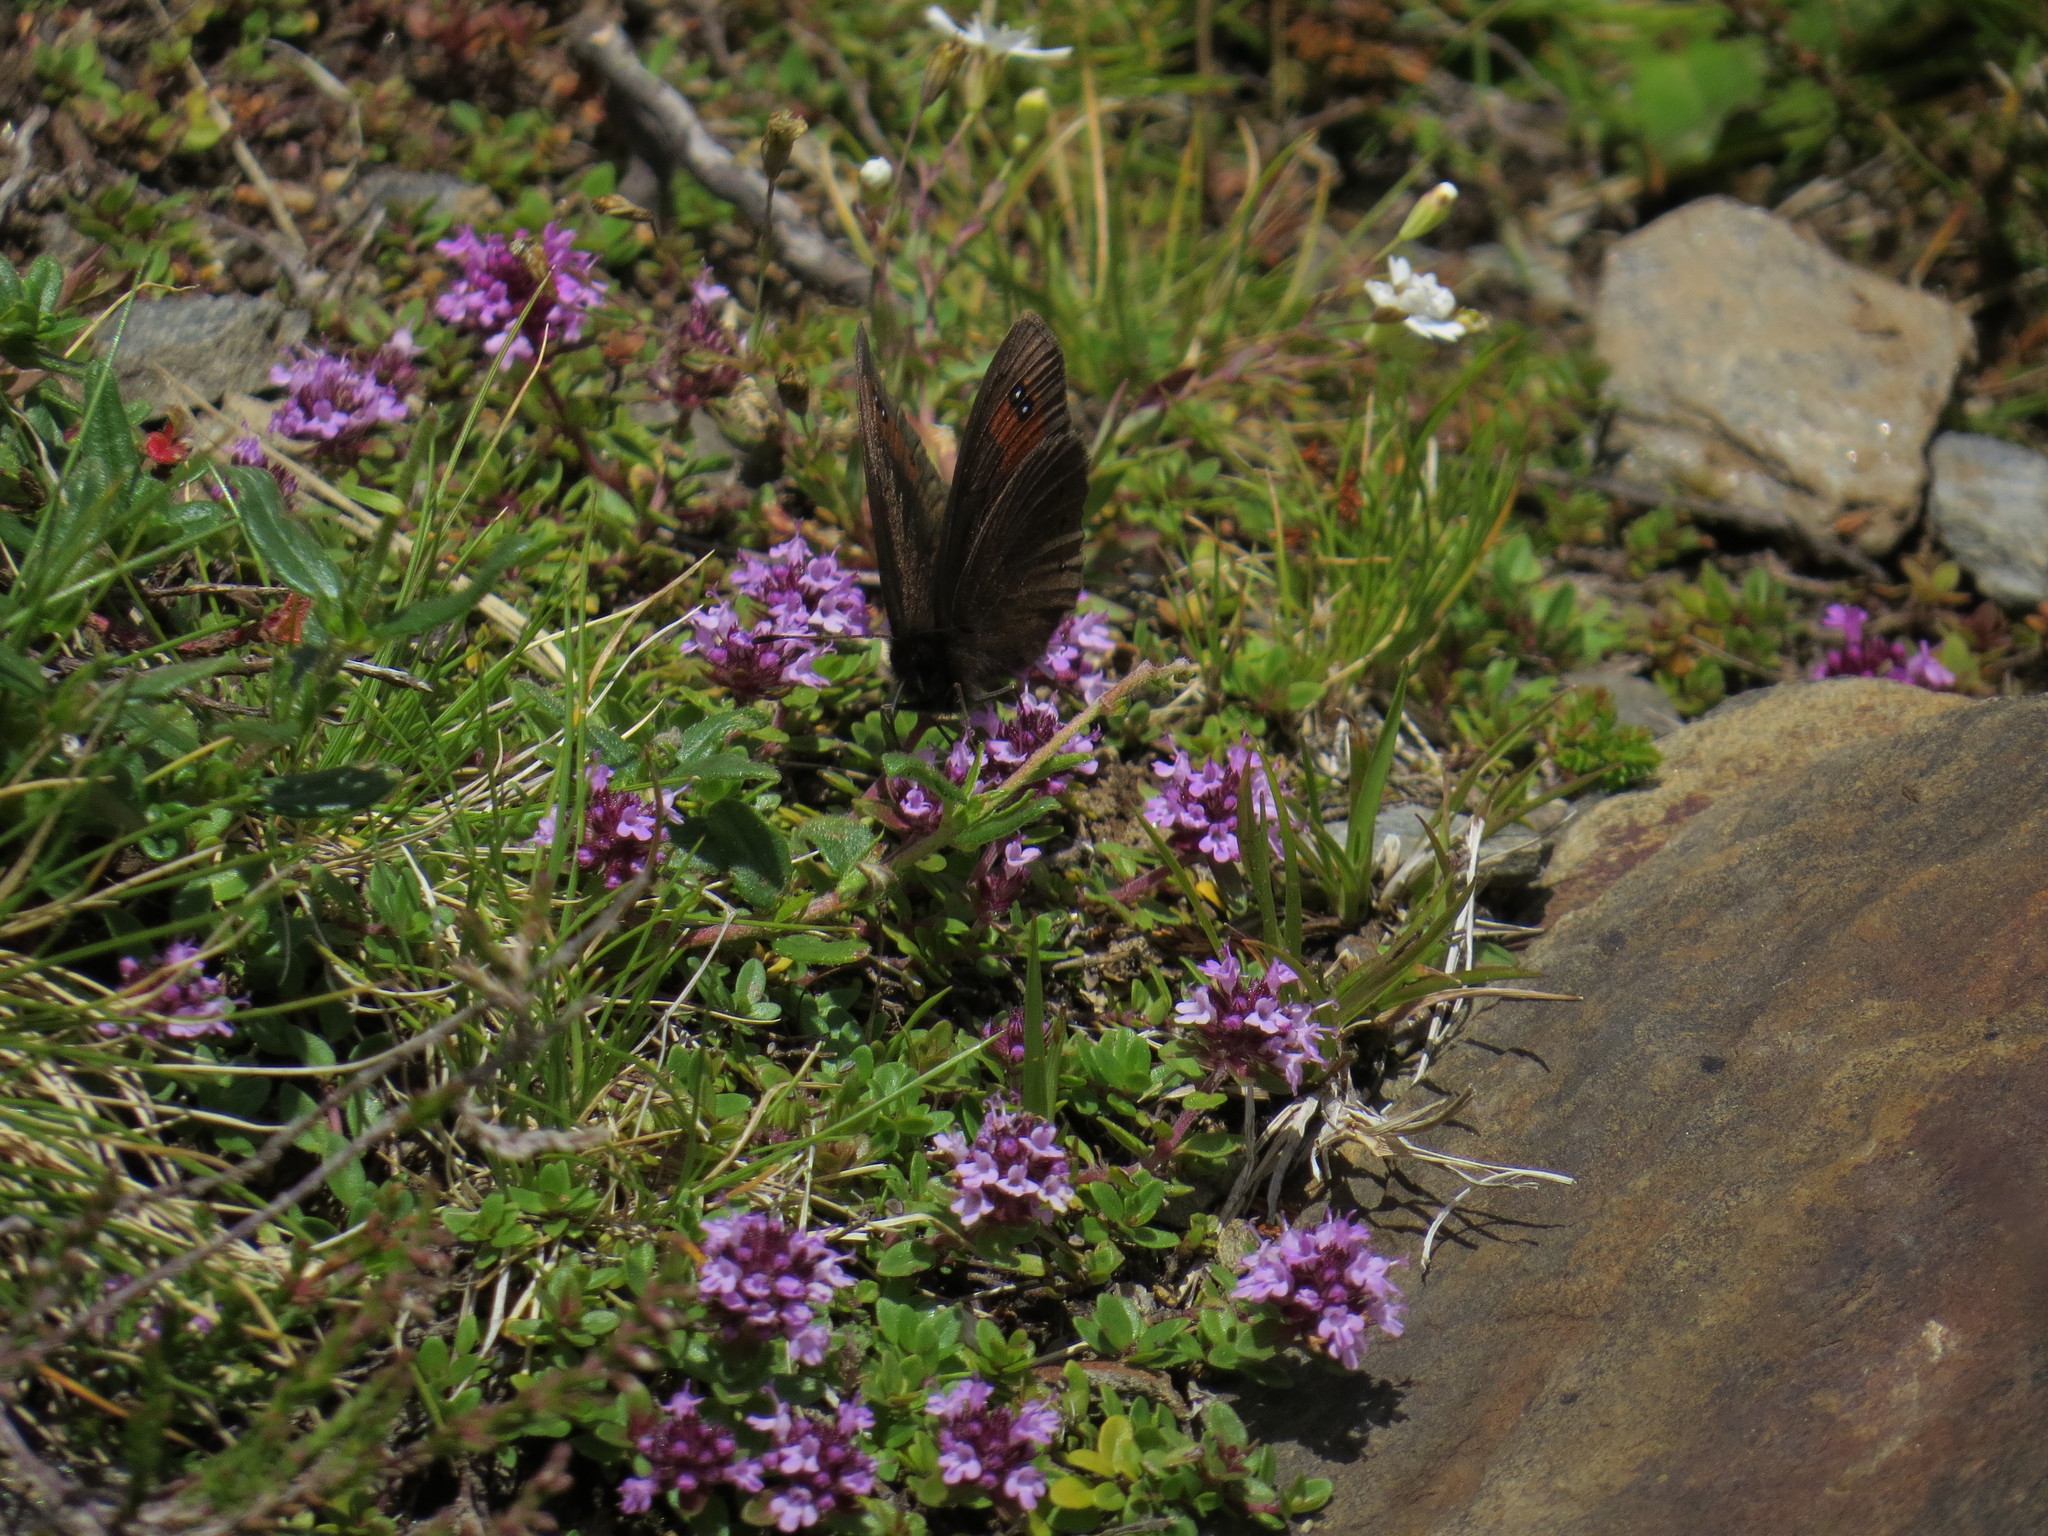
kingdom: Animalia
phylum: Arthropoda
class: Insecta
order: Lepidoptera
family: Nymphalidae
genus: Erebia
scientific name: Erebia meolans
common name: Piedmont ringlet
